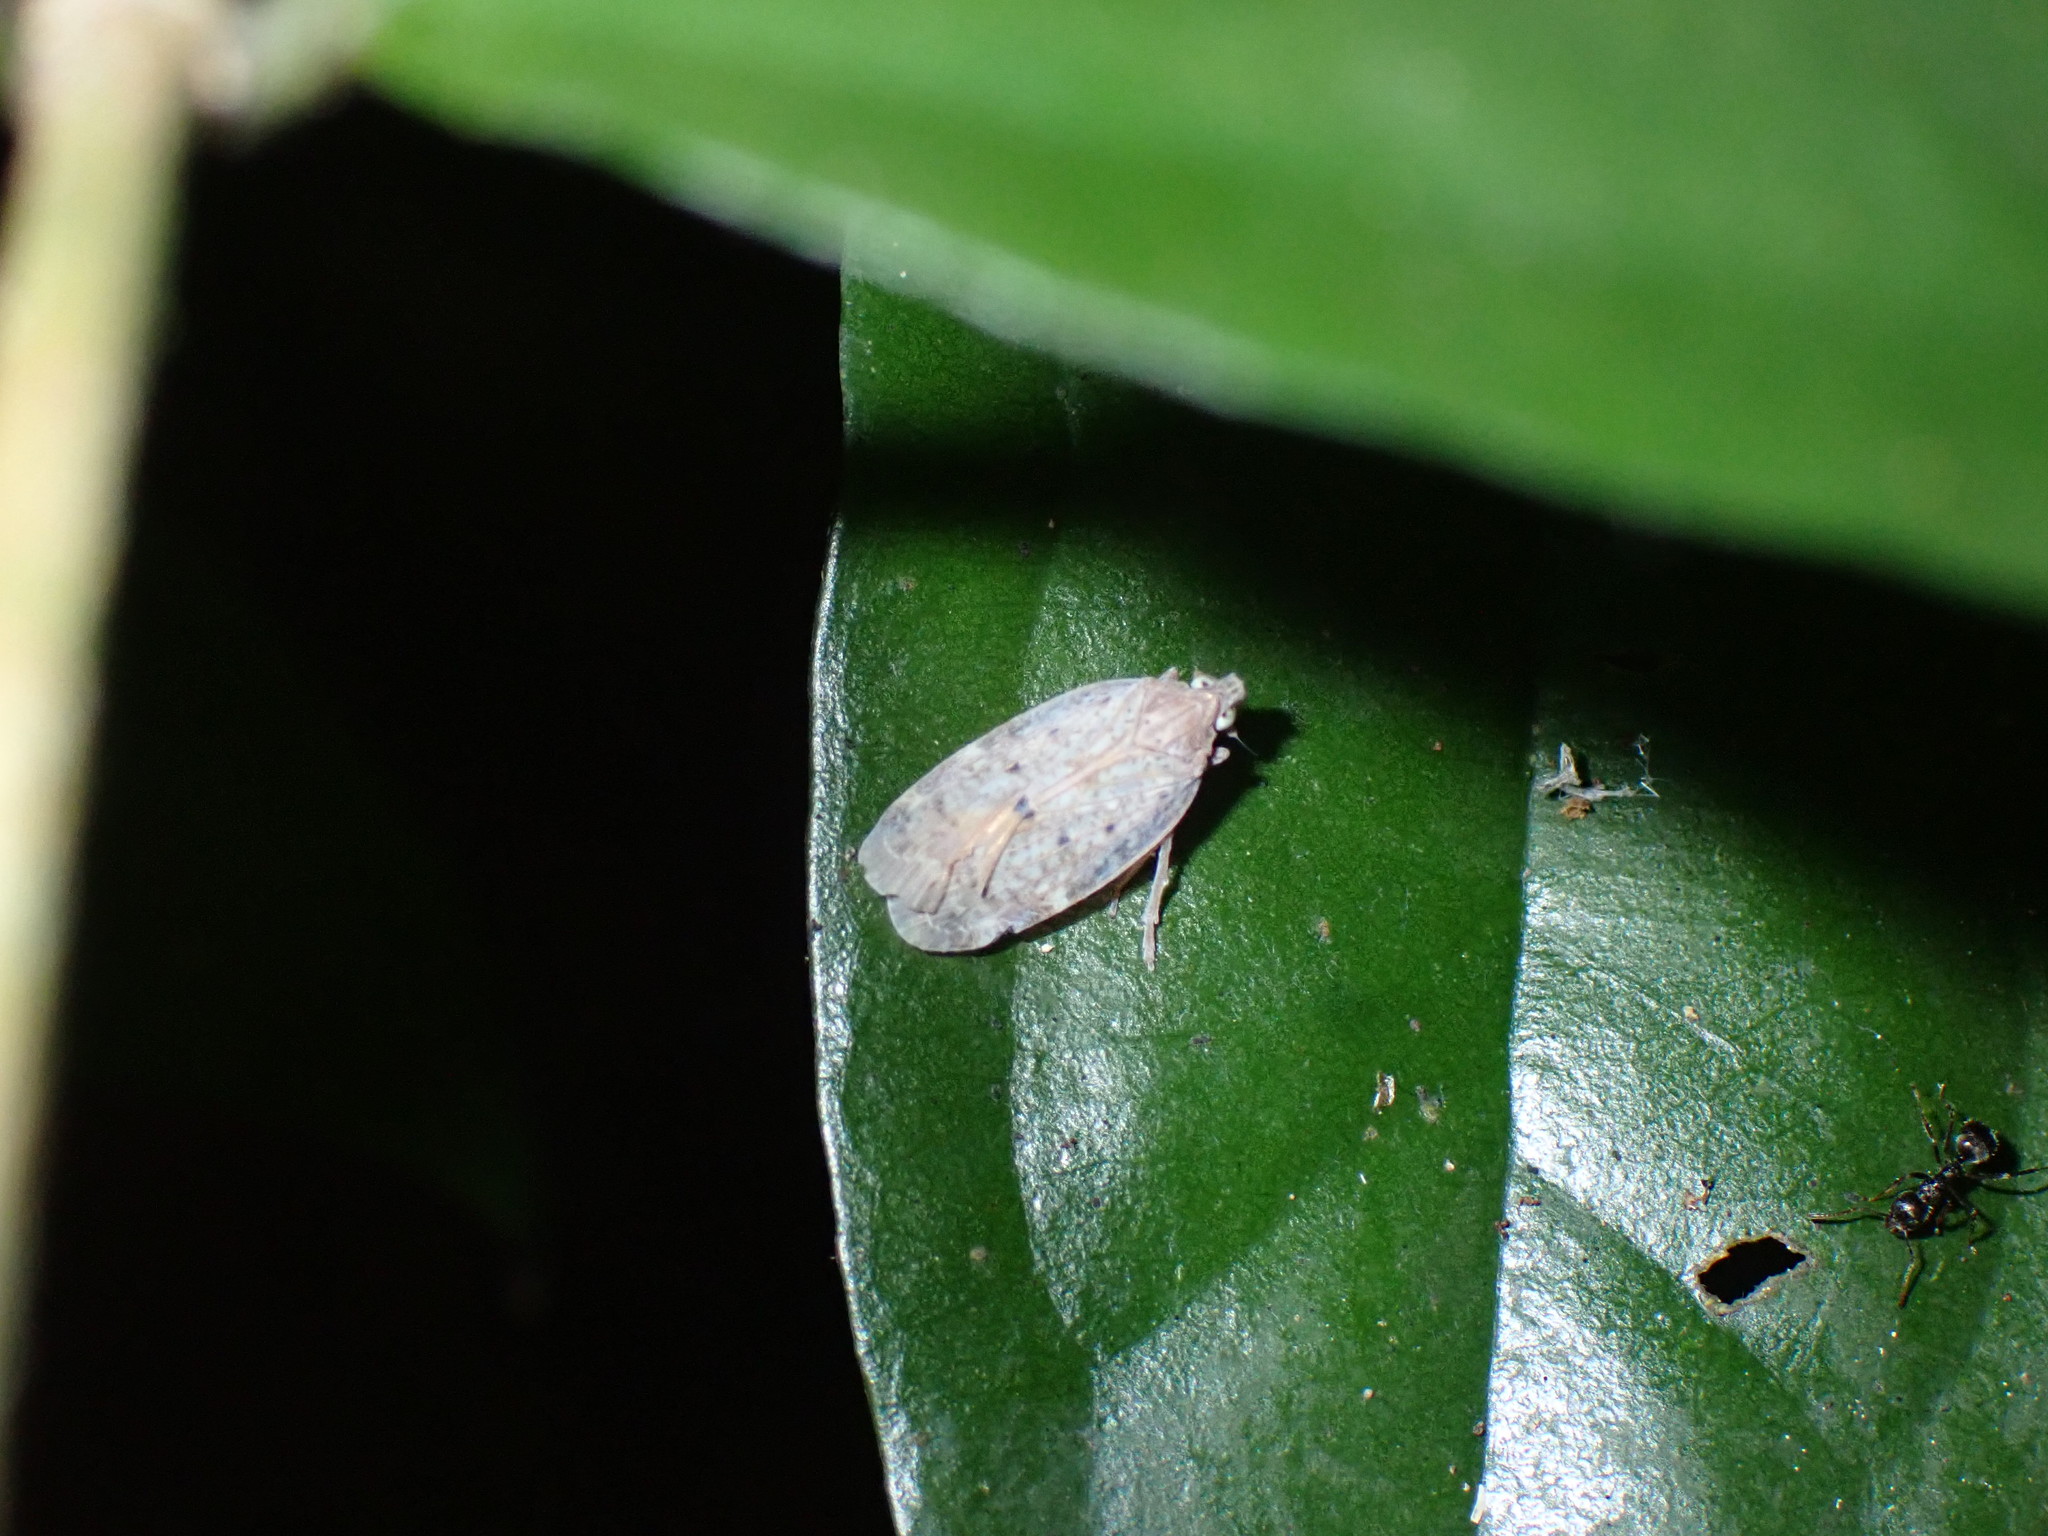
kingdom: Animalia
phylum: Arthropoda
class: Insecta
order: Hemiptera
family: Achilidae
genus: Paracatonidia
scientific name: Paracatonidia webbeda
